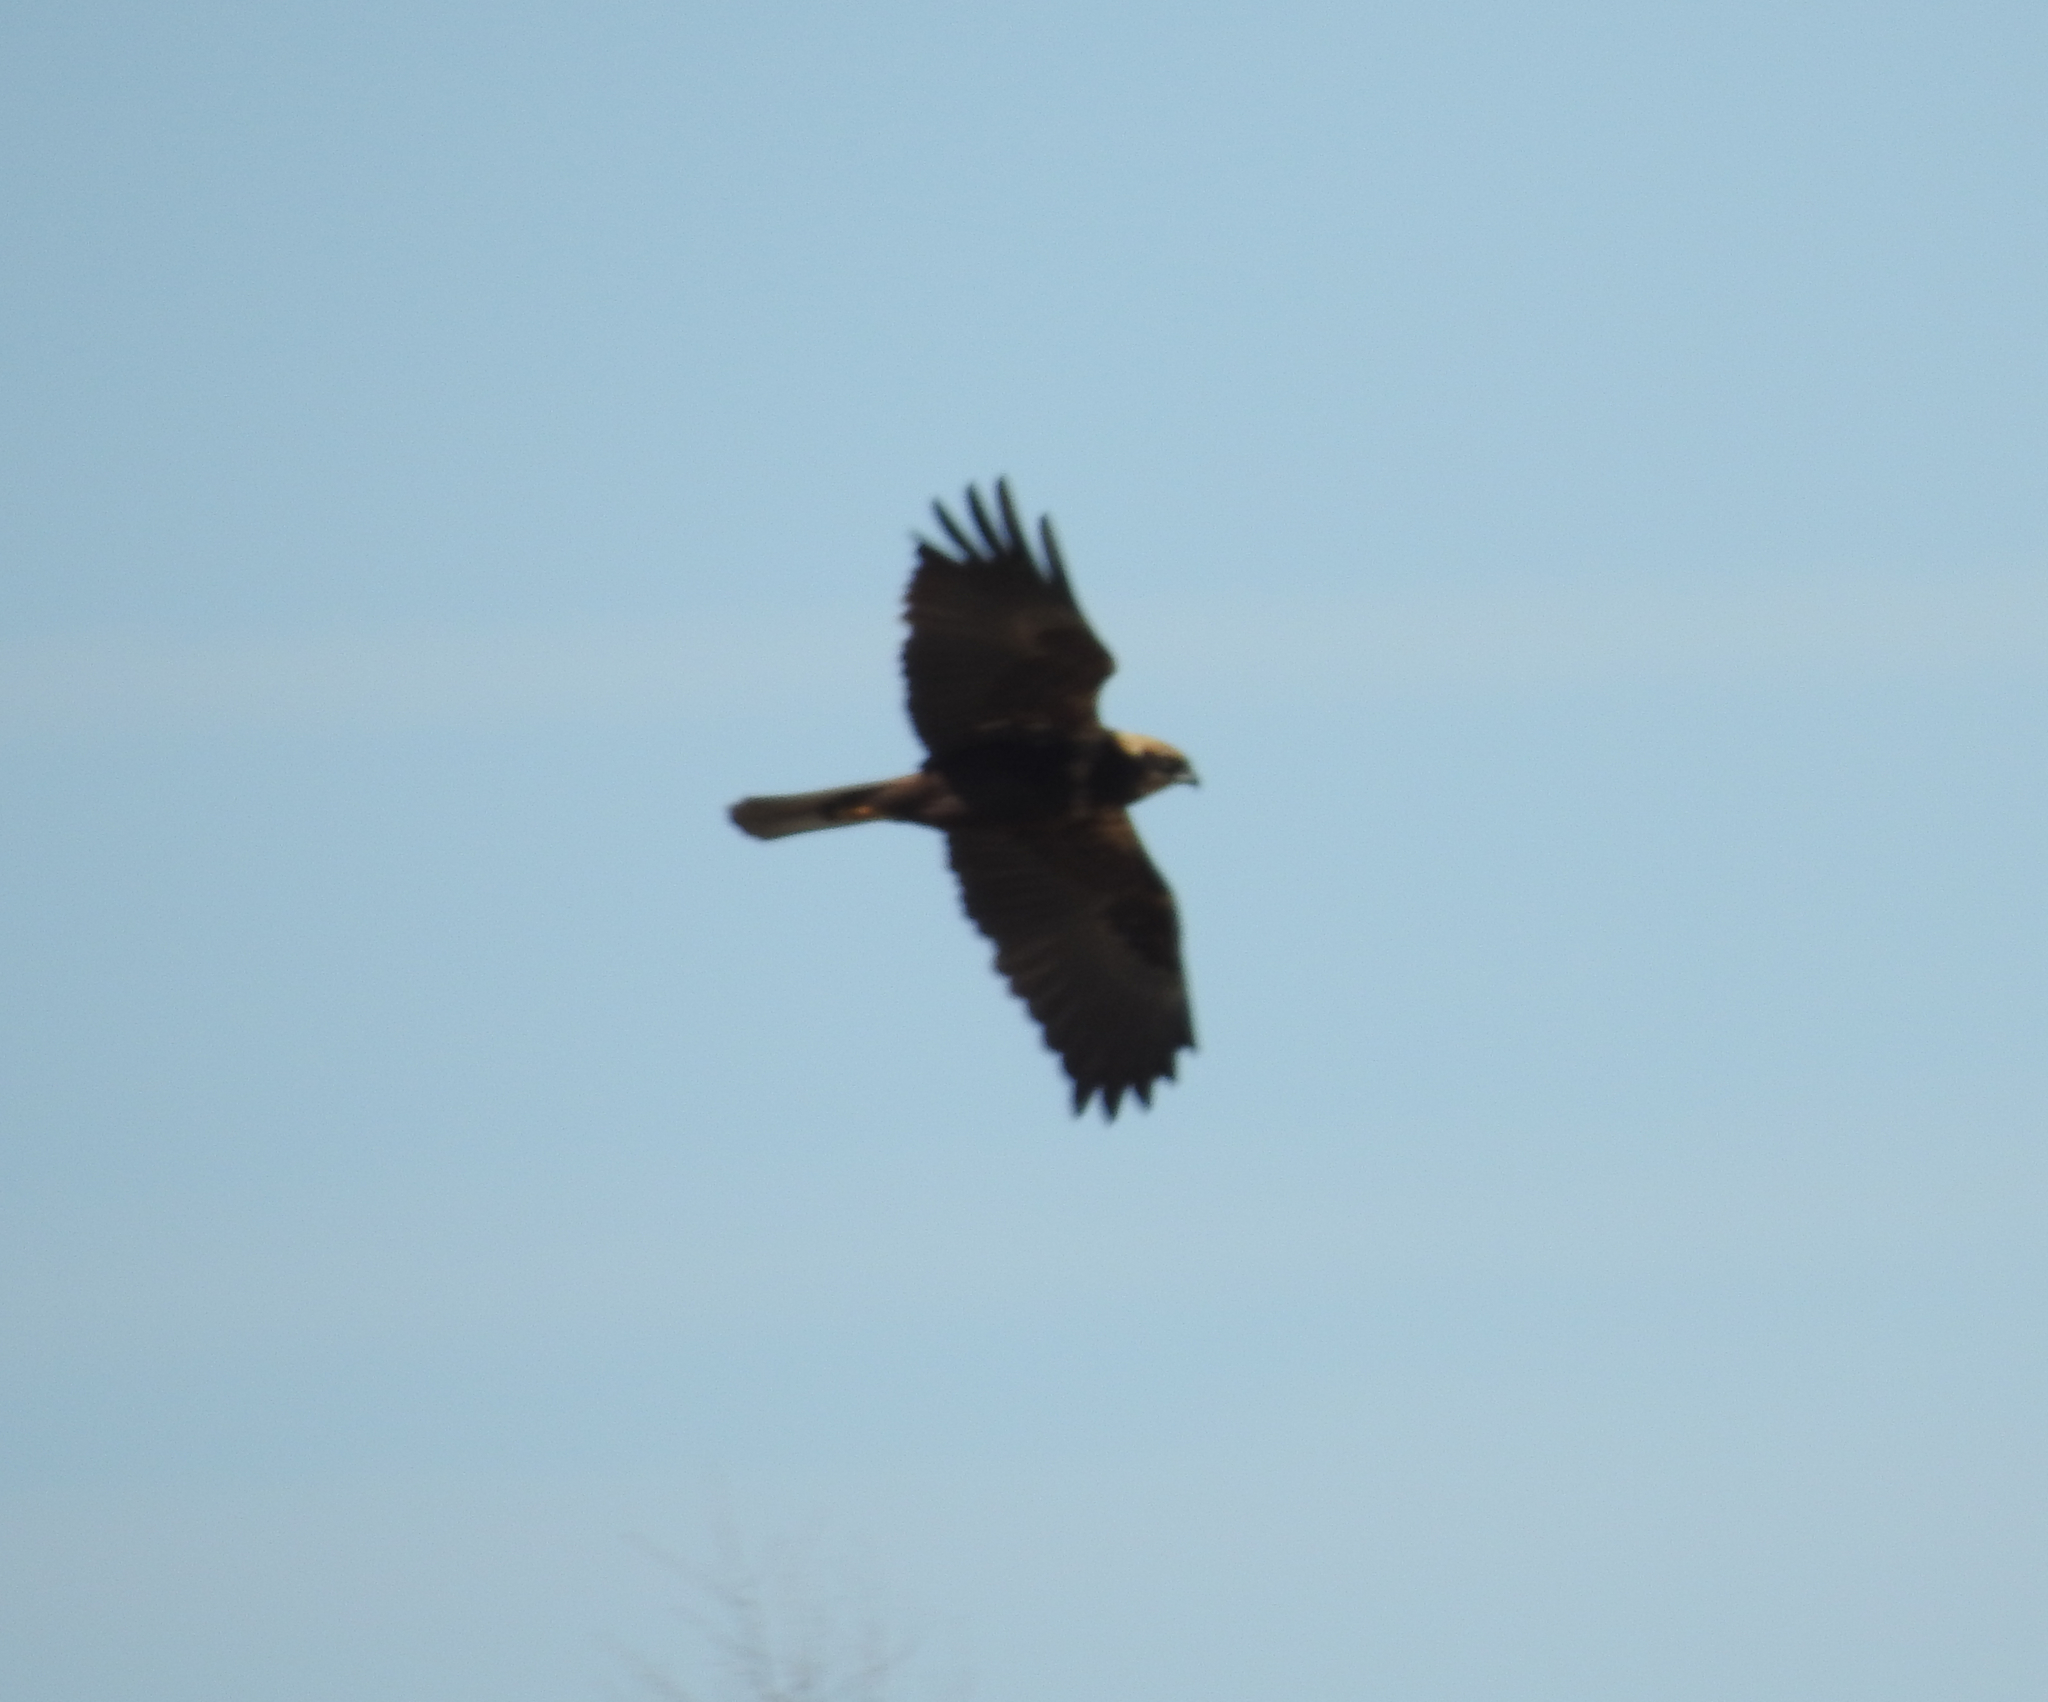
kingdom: Animalia
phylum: Chordata
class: Aves
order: Accipitriformes
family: Accipitridae
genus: Circus
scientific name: Circus aeruginosus
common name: Western marsh harrier
